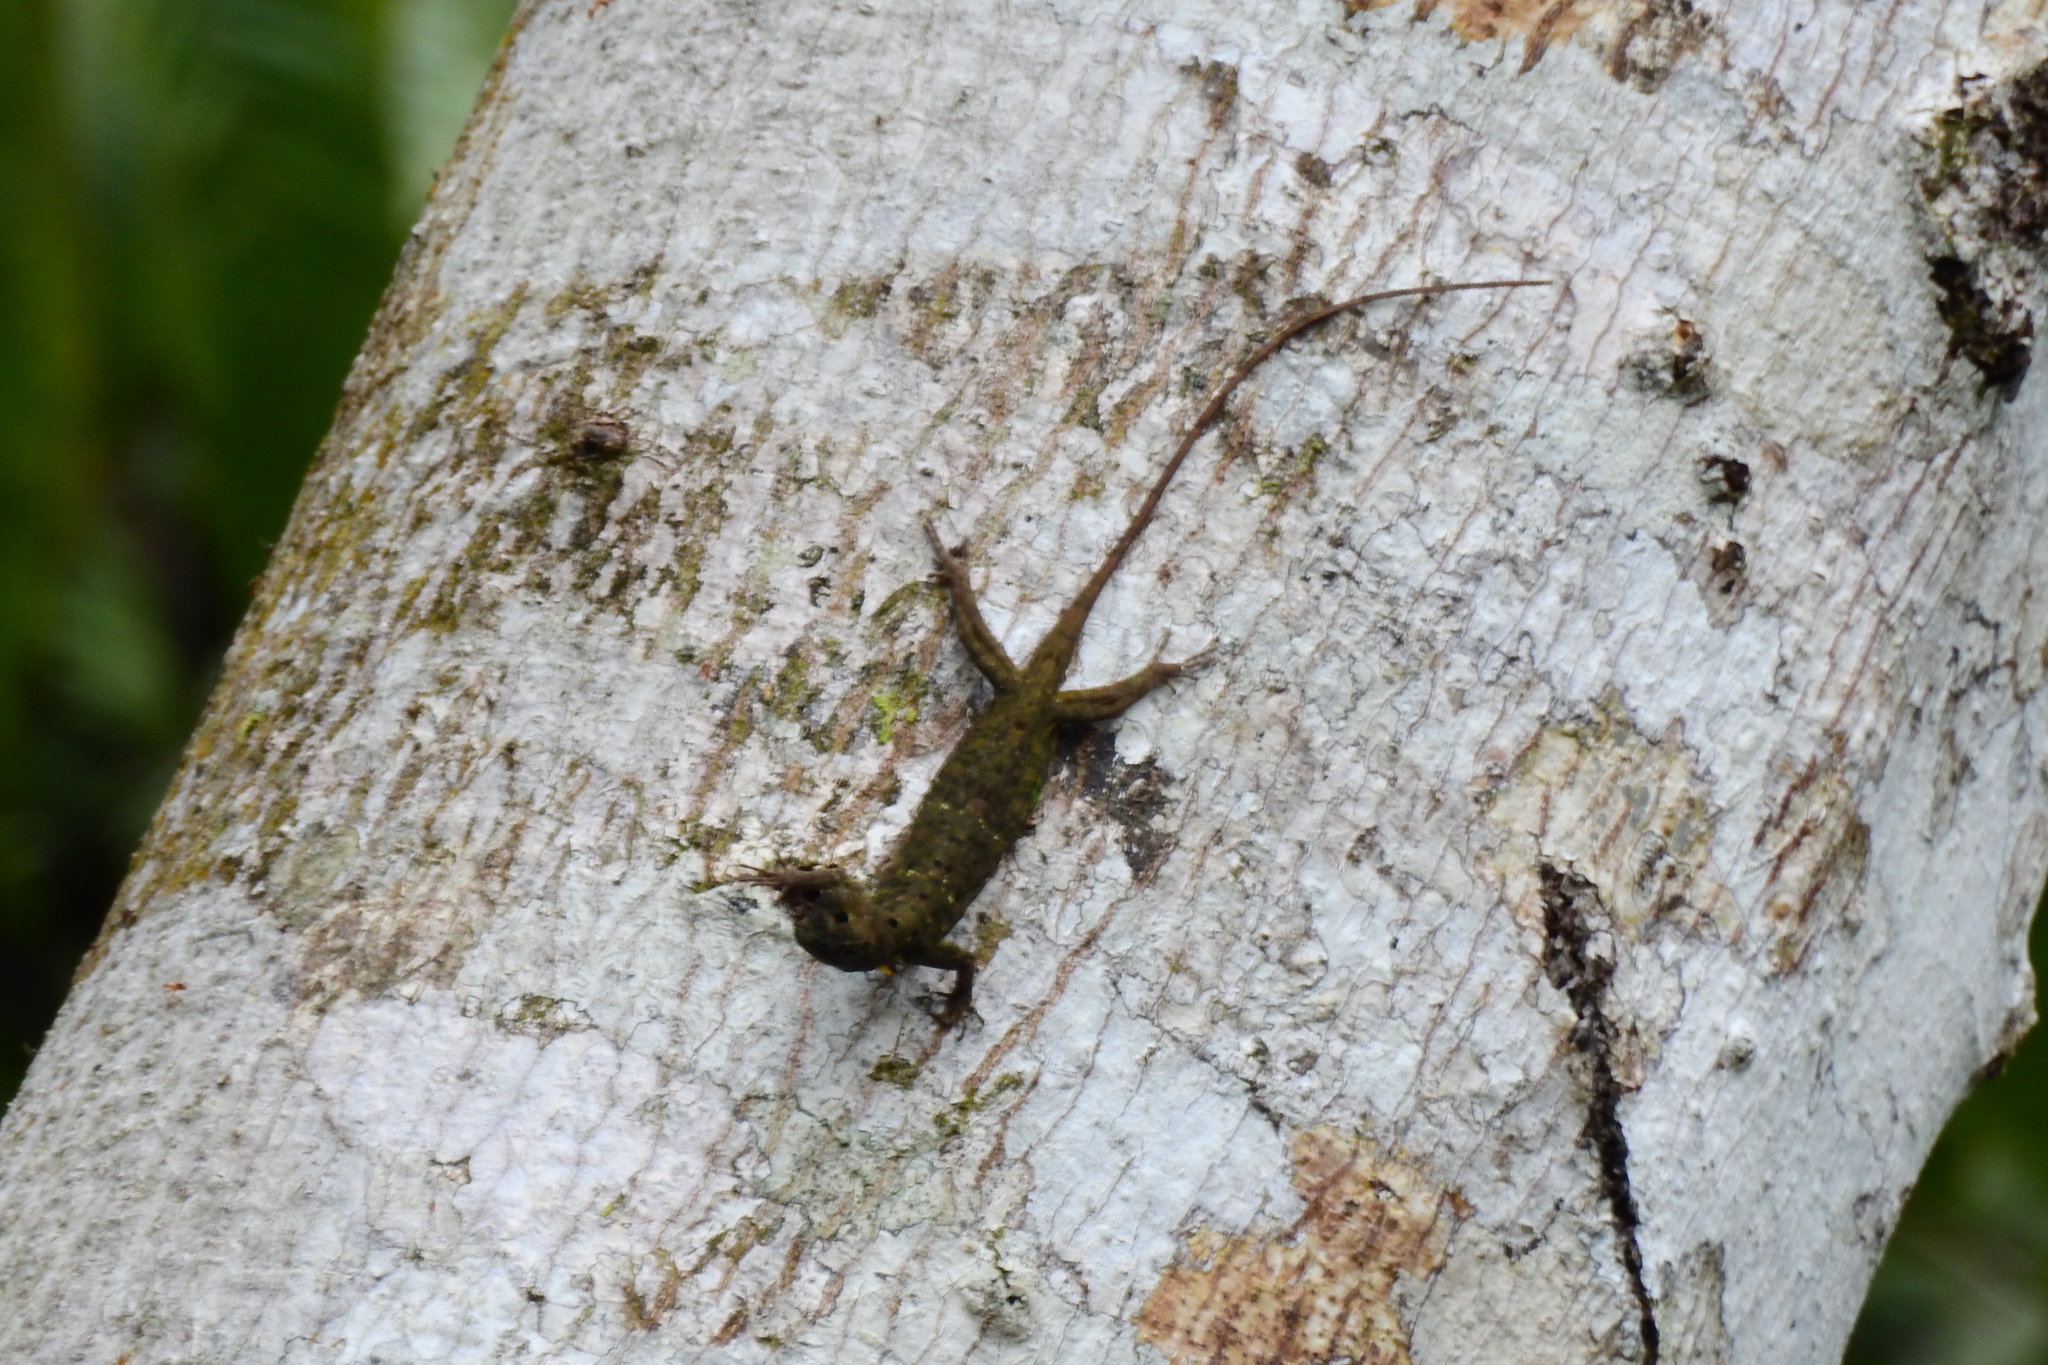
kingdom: Animalia
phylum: Chordata
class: Squamata
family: Agamidae
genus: Draco
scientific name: Draco cornutus
